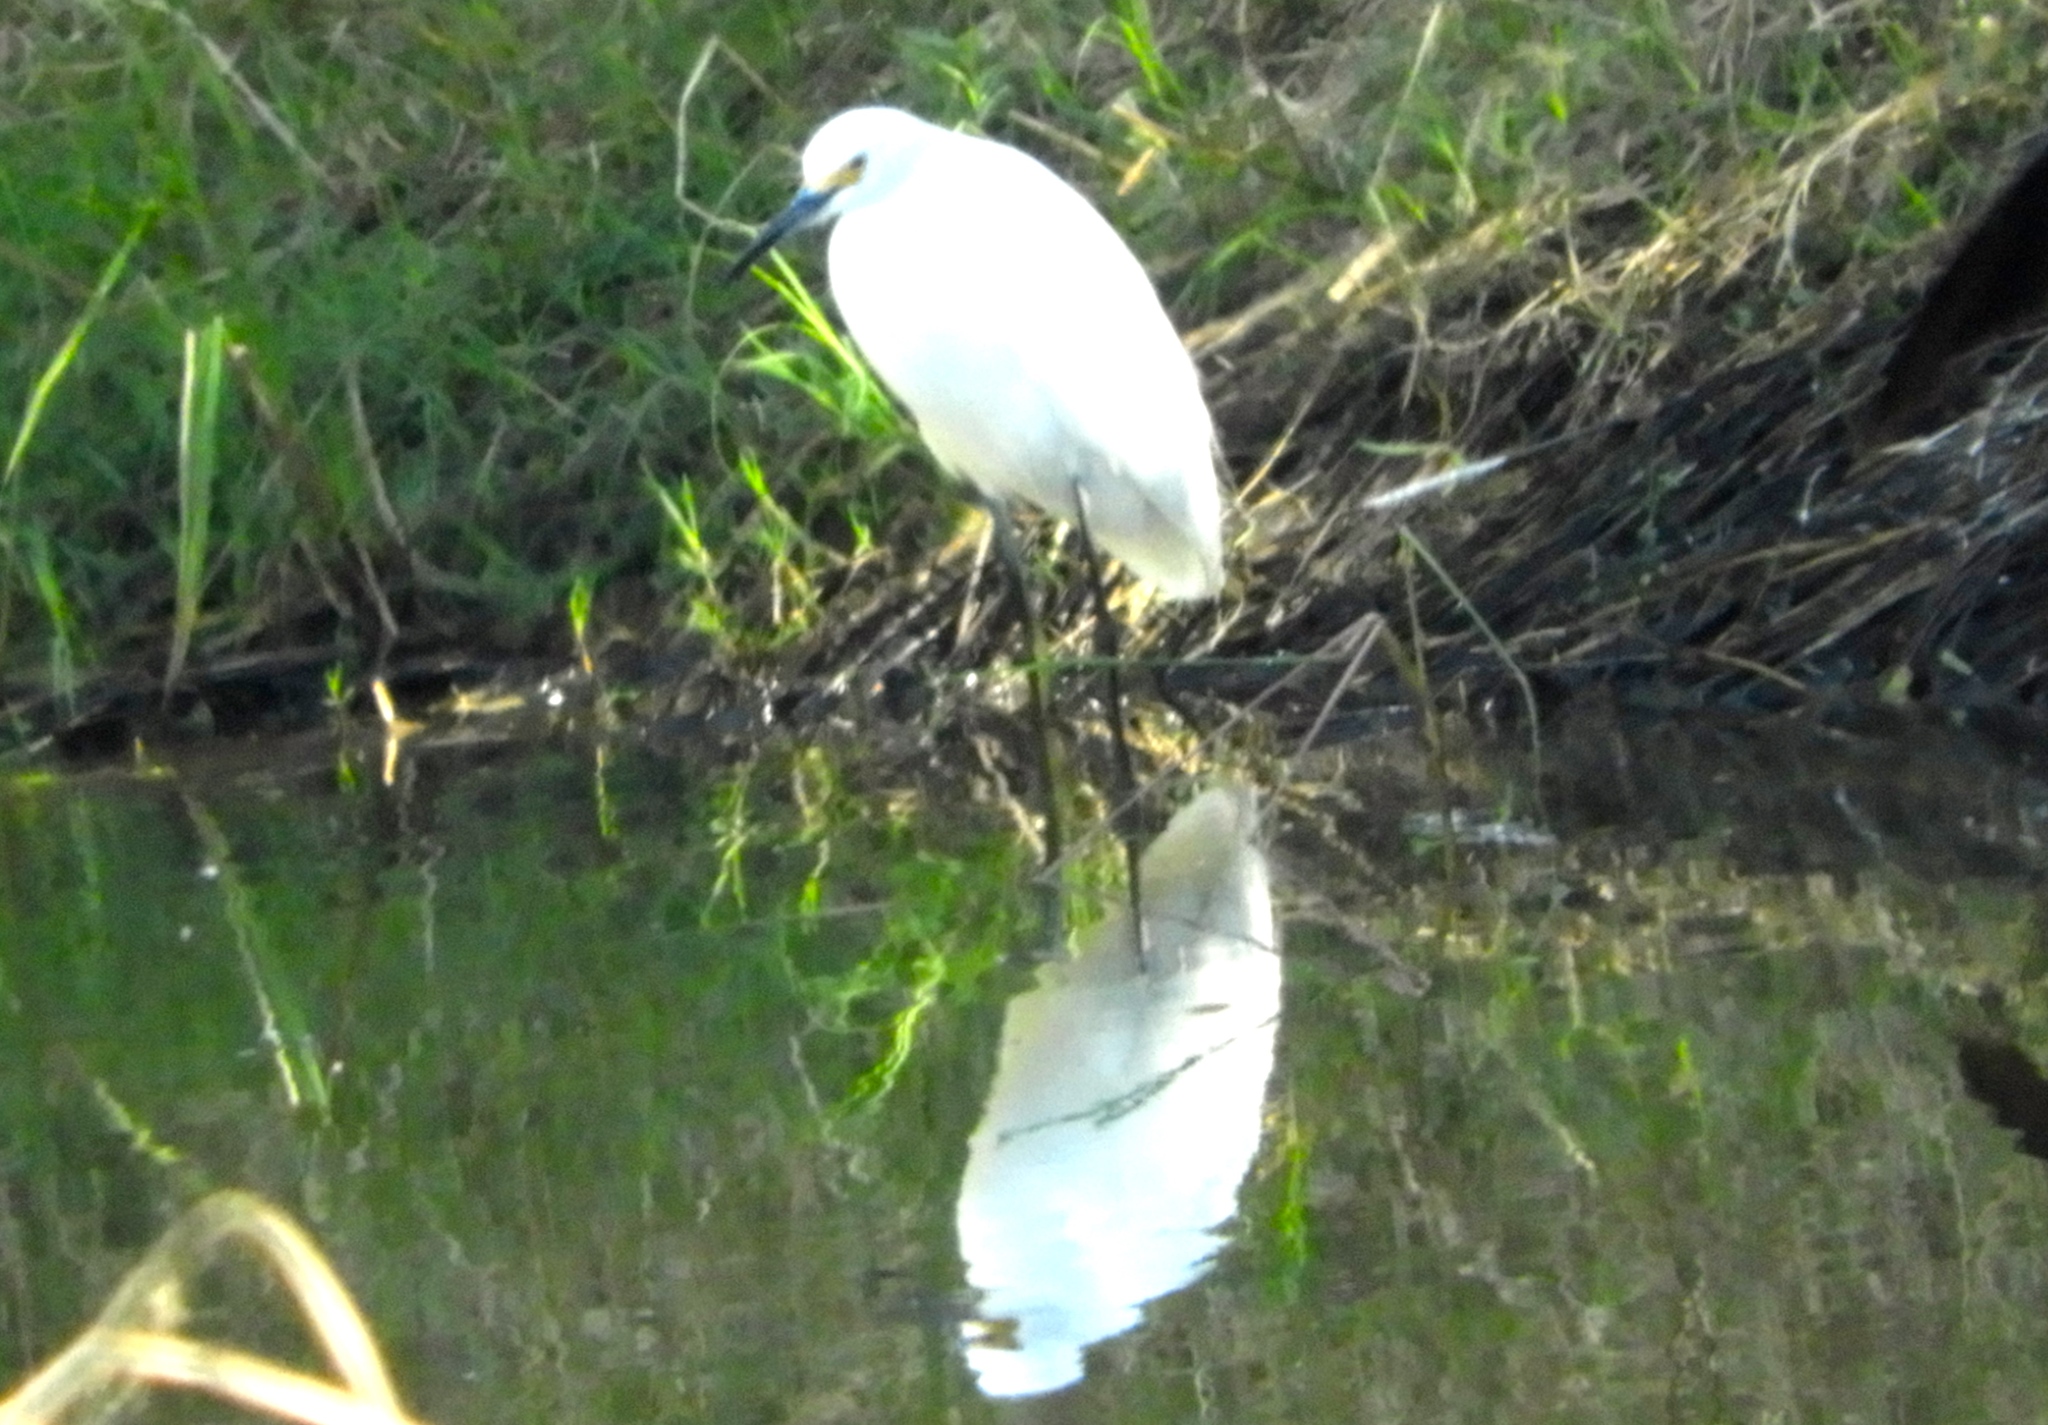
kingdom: Animalia
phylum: Chordata
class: Aves
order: Pelecaniformes
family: Ardeidae
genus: Egretta
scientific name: Egretta thula
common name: Snowy egret
